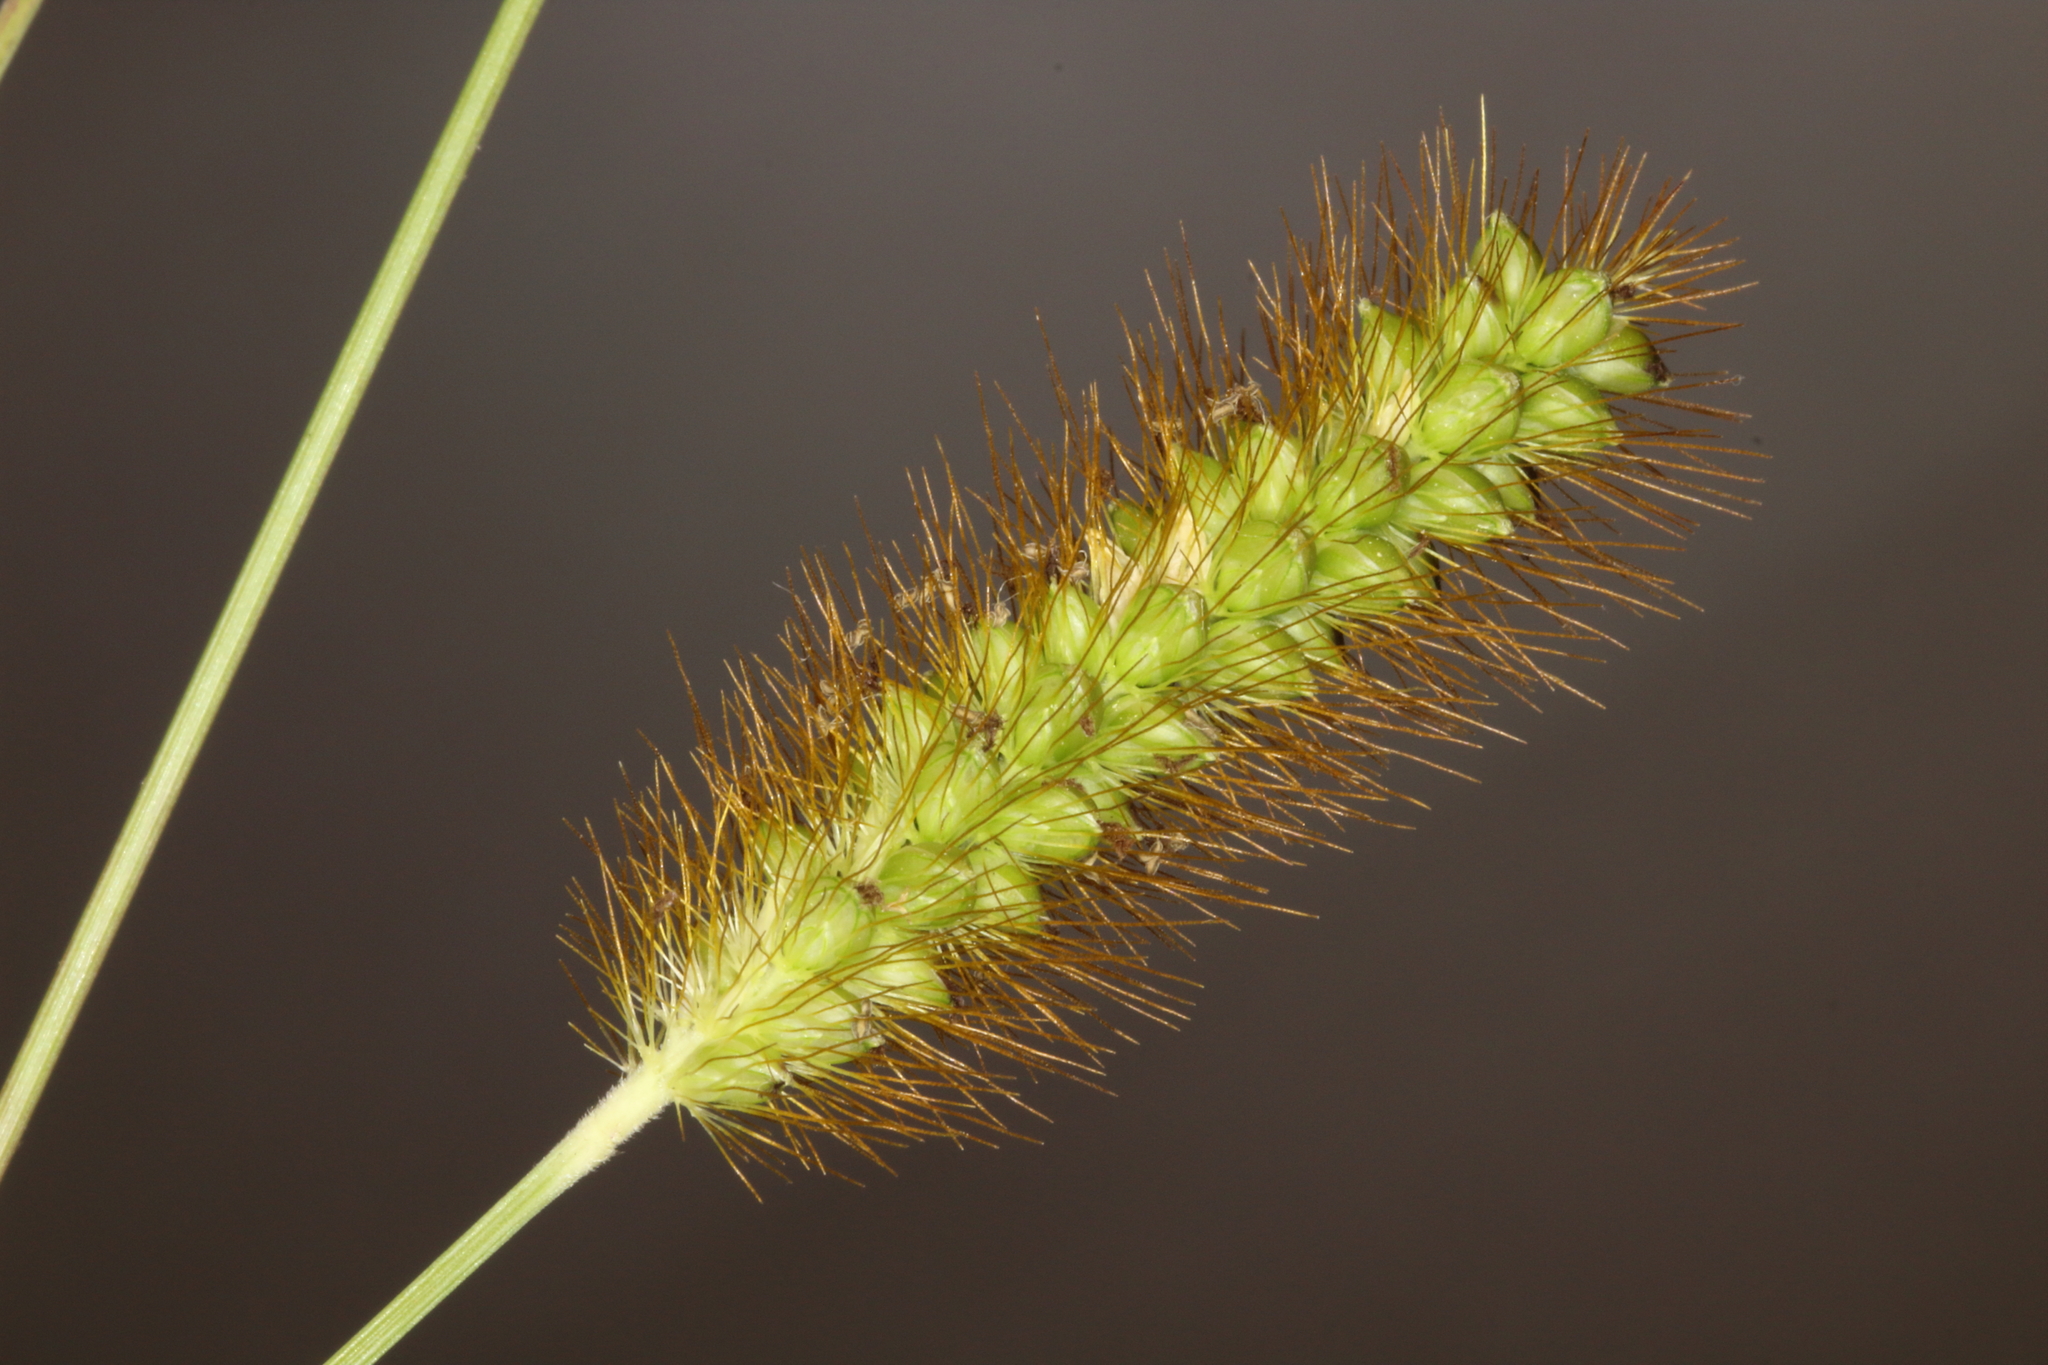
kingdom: Plantae
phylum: Tracheophyta
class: Liliopsida
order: Poales
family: Poaceae
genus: Setaria
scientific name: Setaria pumila
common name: Yellow bristle-grass
